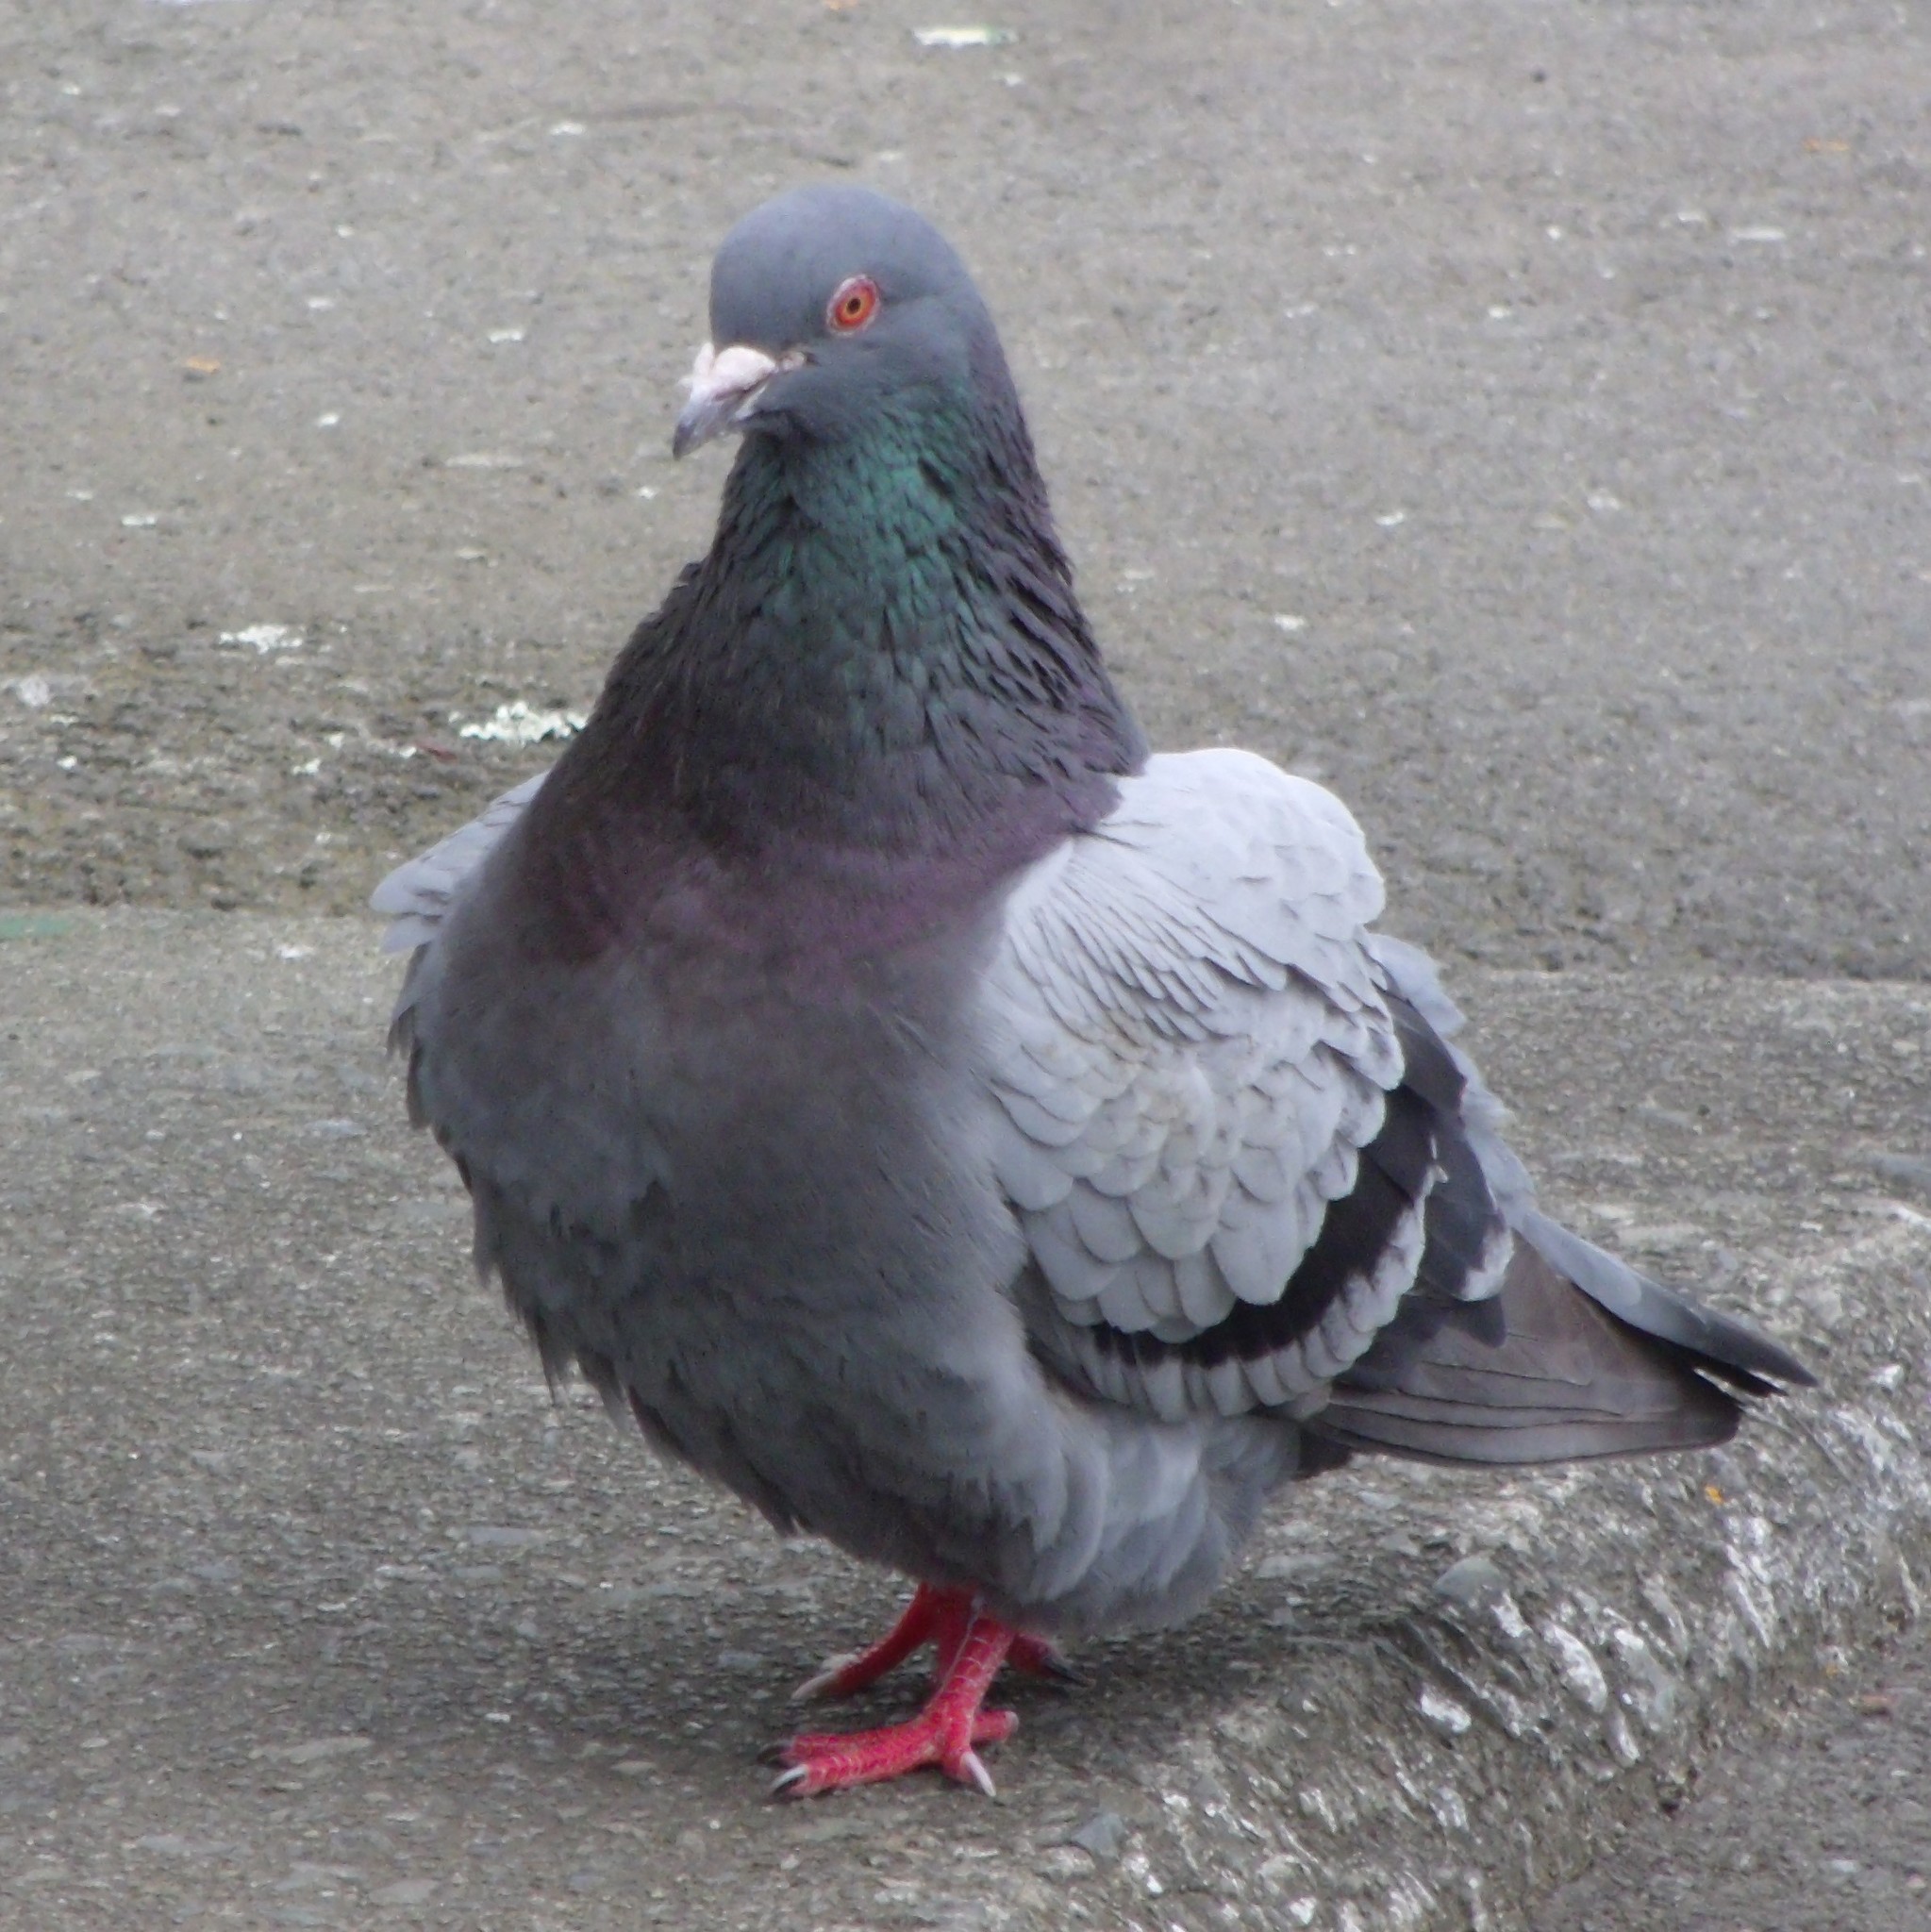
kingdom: Animalia
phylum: Chordata
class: Aves
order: Columbiformes
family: Columbidae
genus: Columba
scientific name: Columba livia
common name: Rock pigeon
